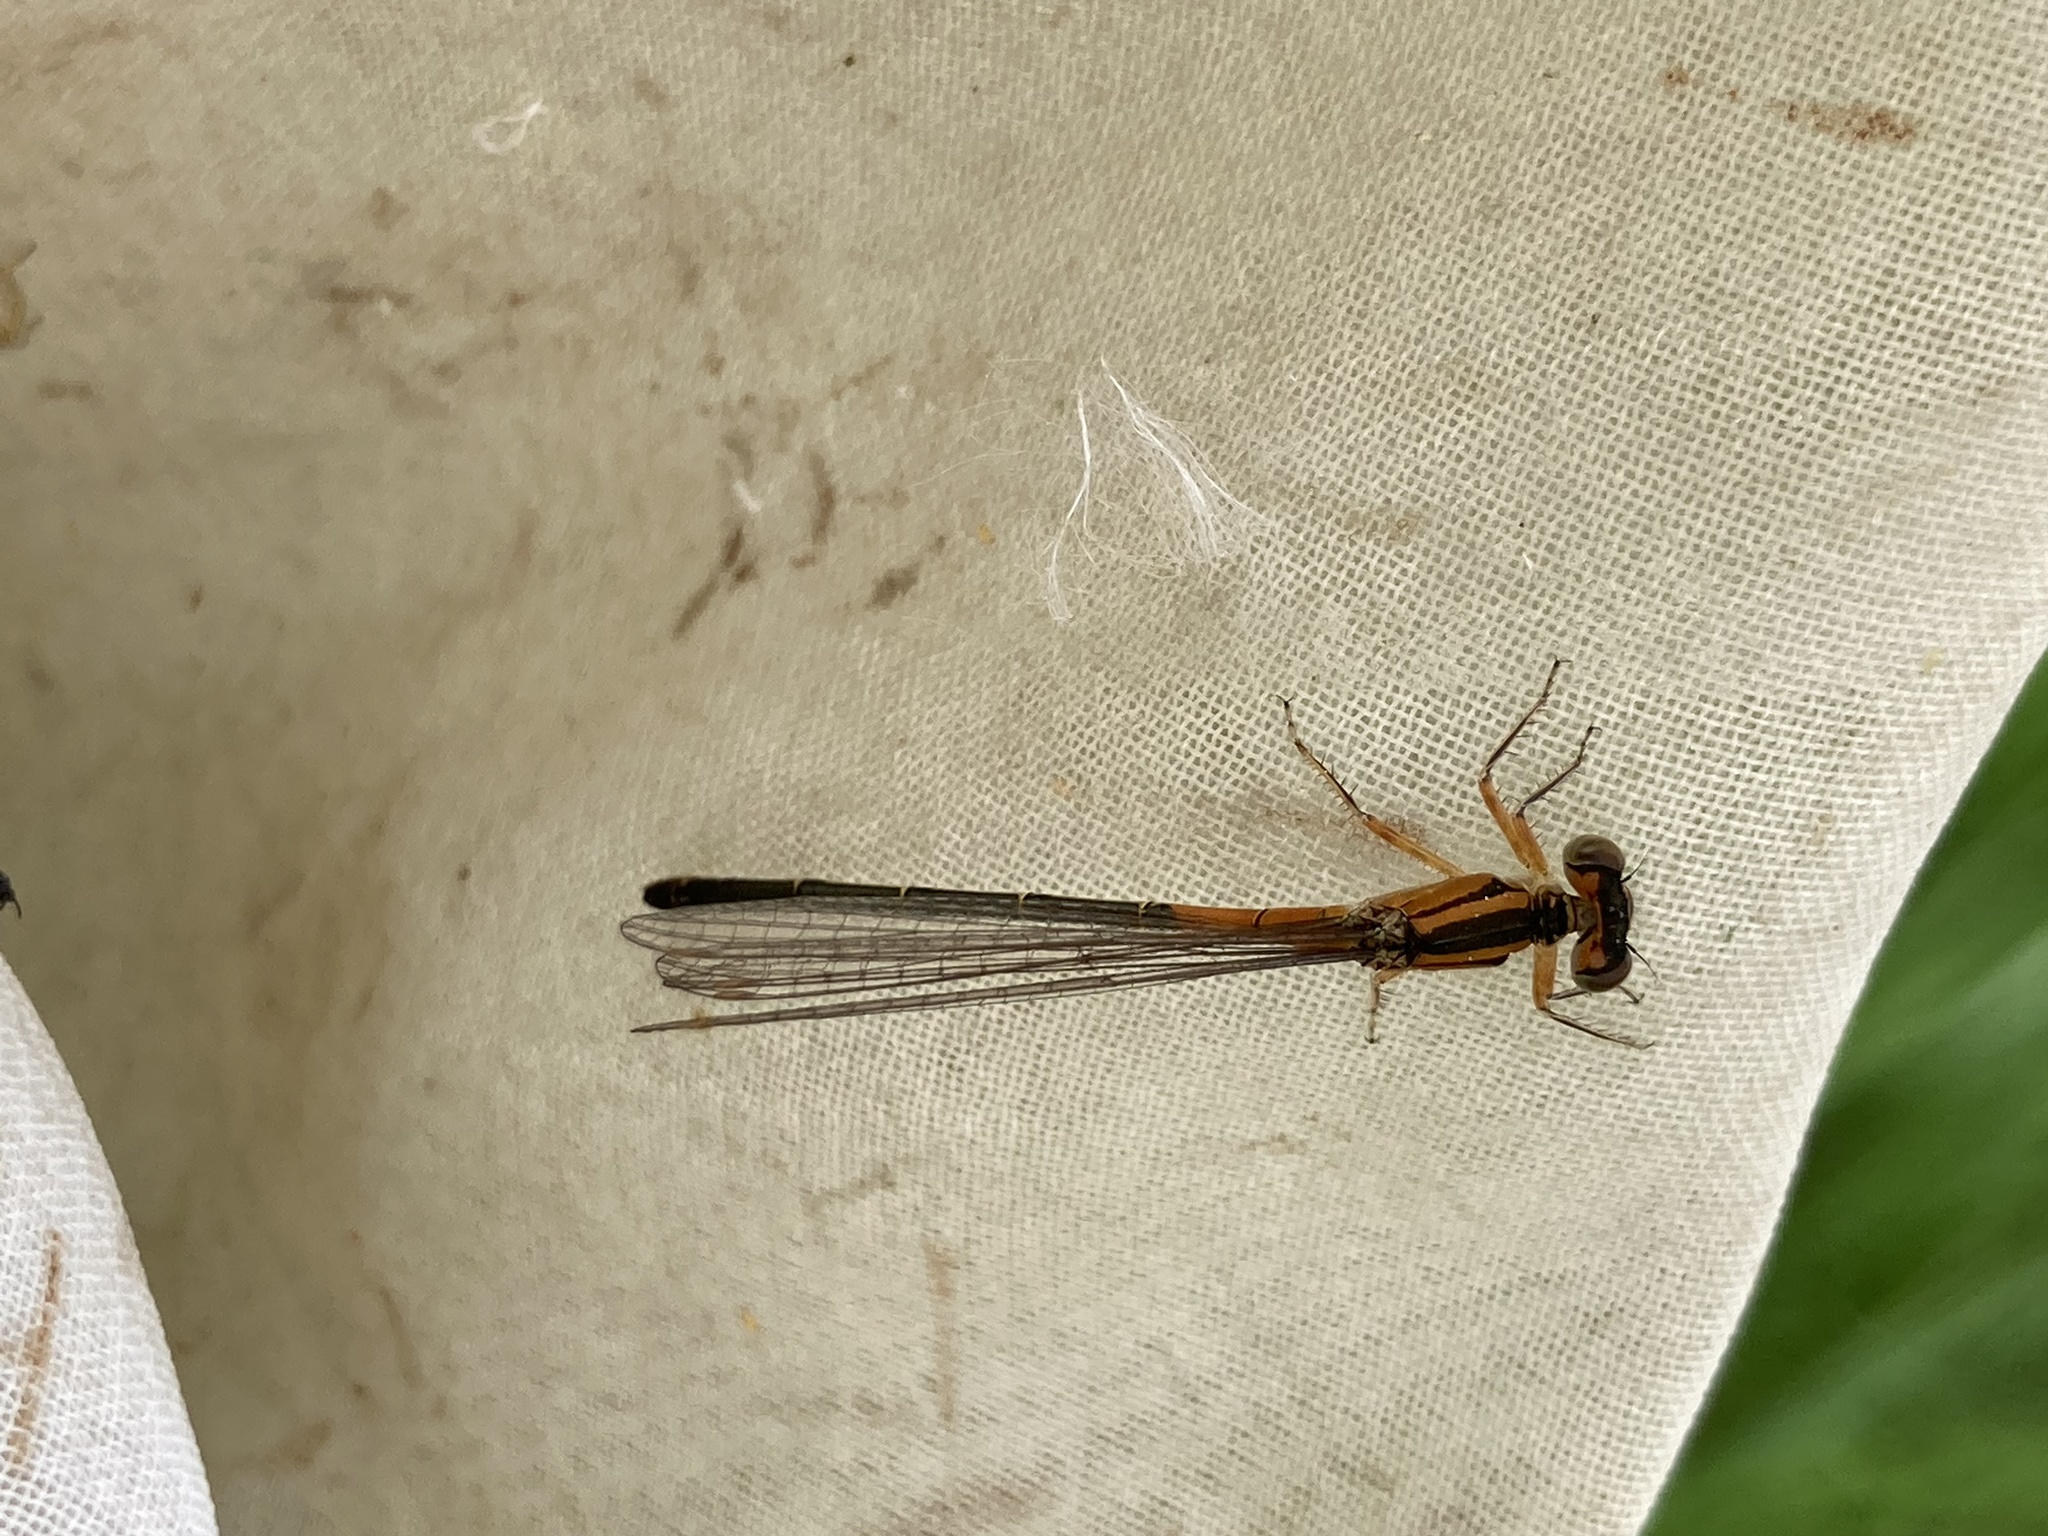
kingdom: Animalia
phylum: Arthropoda
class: Insecta
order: Odonata
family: Coenagrionidae
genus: Ischnura
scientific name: Ischnura verticalis
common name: Eastern forktail
